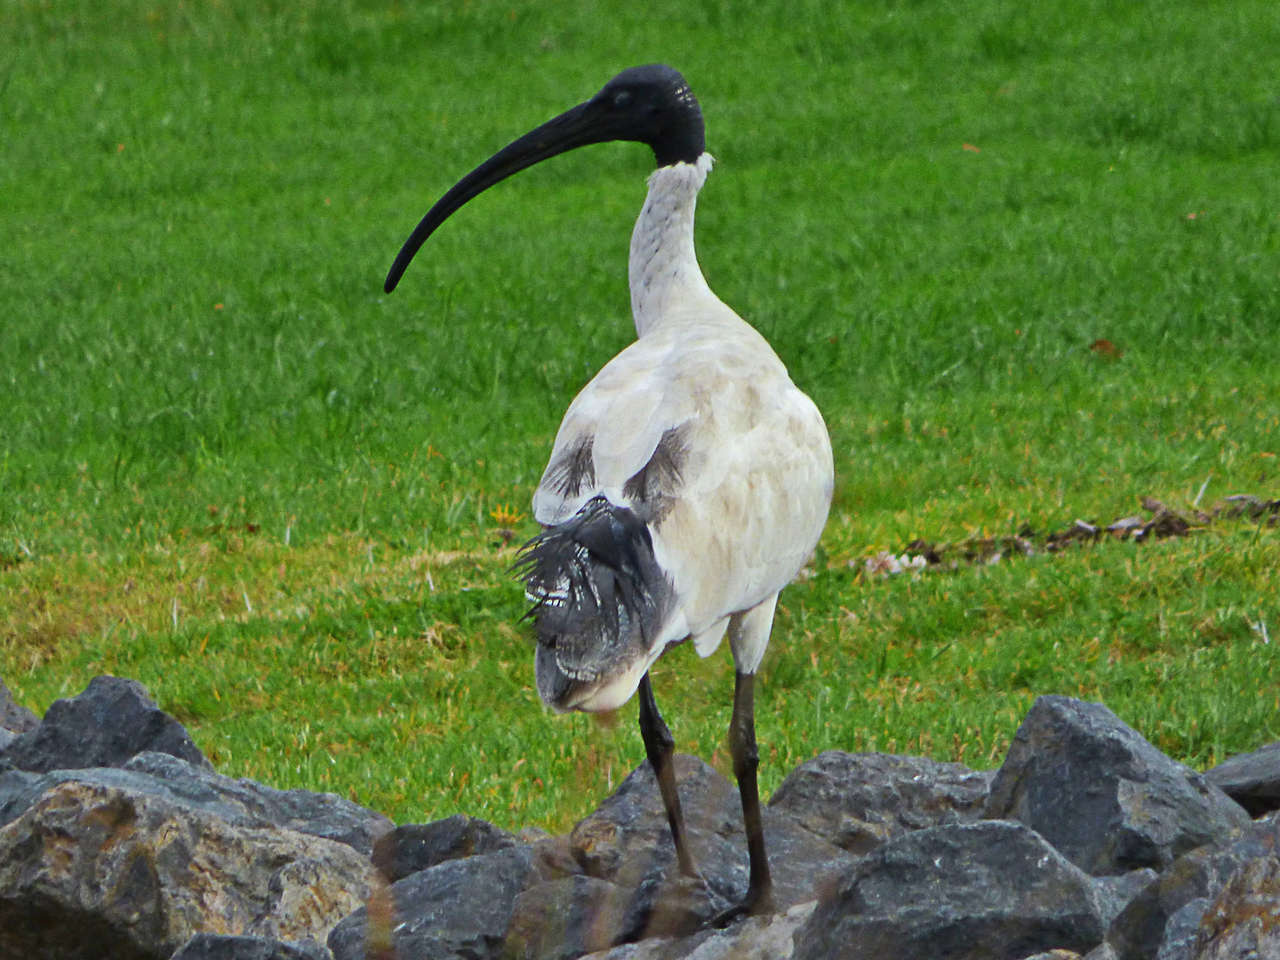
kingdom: Animalia
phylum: Chordata
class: Aves
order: Pelecaniformes
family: Threskiornithidae
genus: Threskiornis
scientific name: Threskiornis molucca
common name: Australian white ibis
